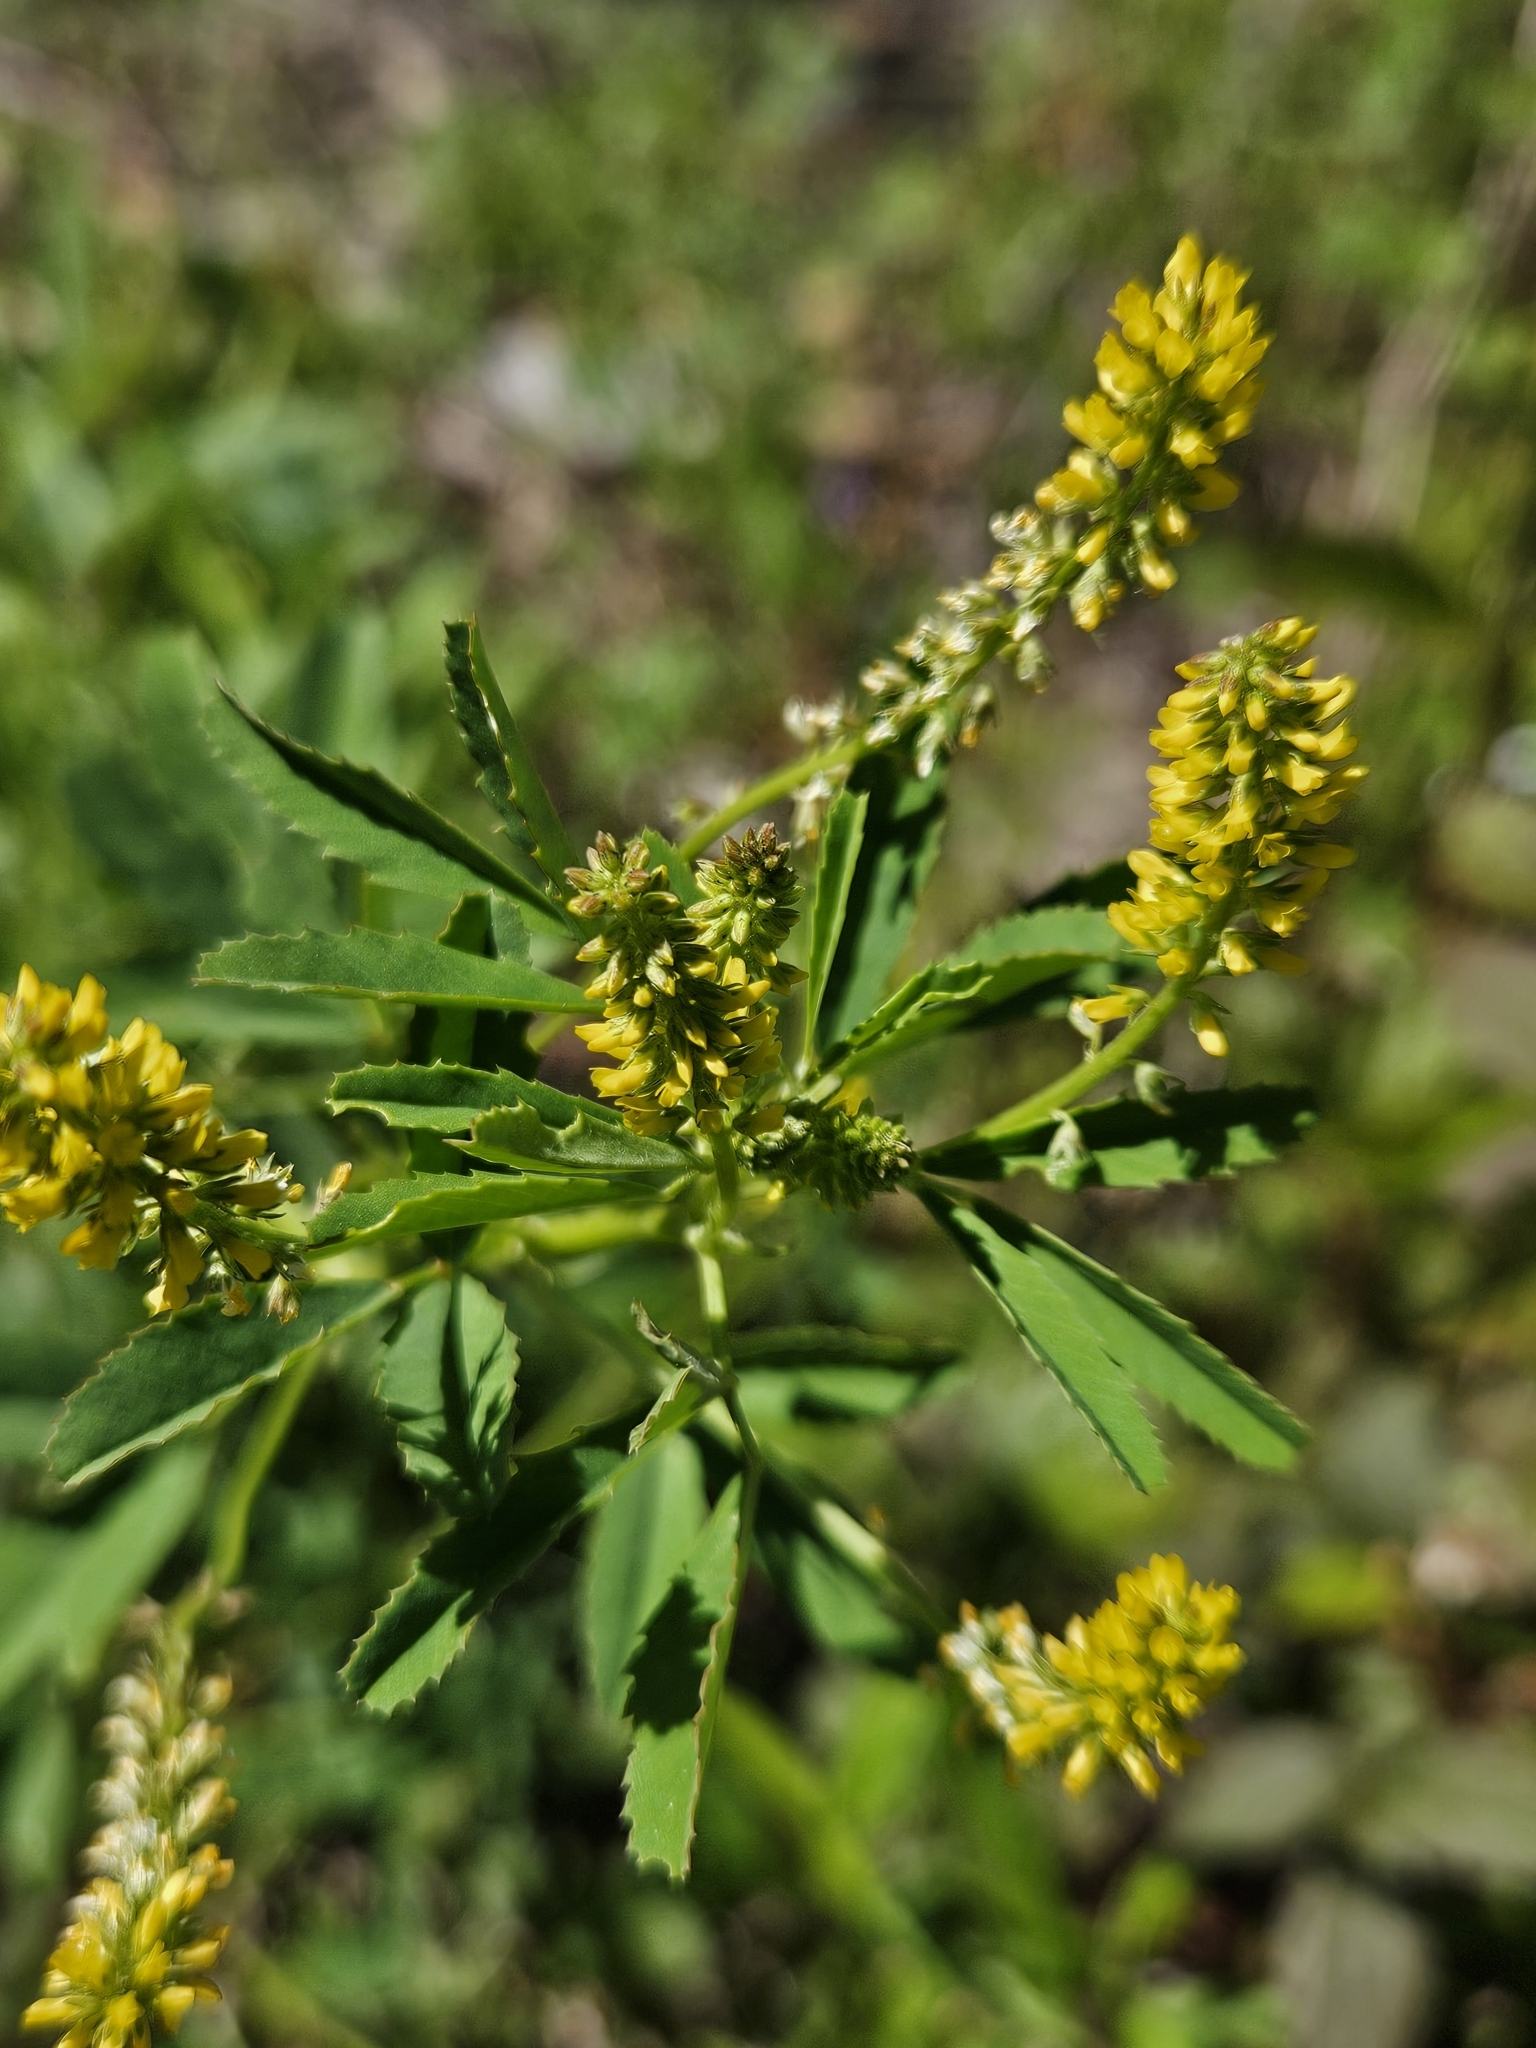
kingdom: Plantae
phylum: Tracheophyta
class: Magnoliopsida
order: Fabales
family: Fabaceae
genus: Melilotus
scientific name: Melilotus indicus
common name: Small melilot
